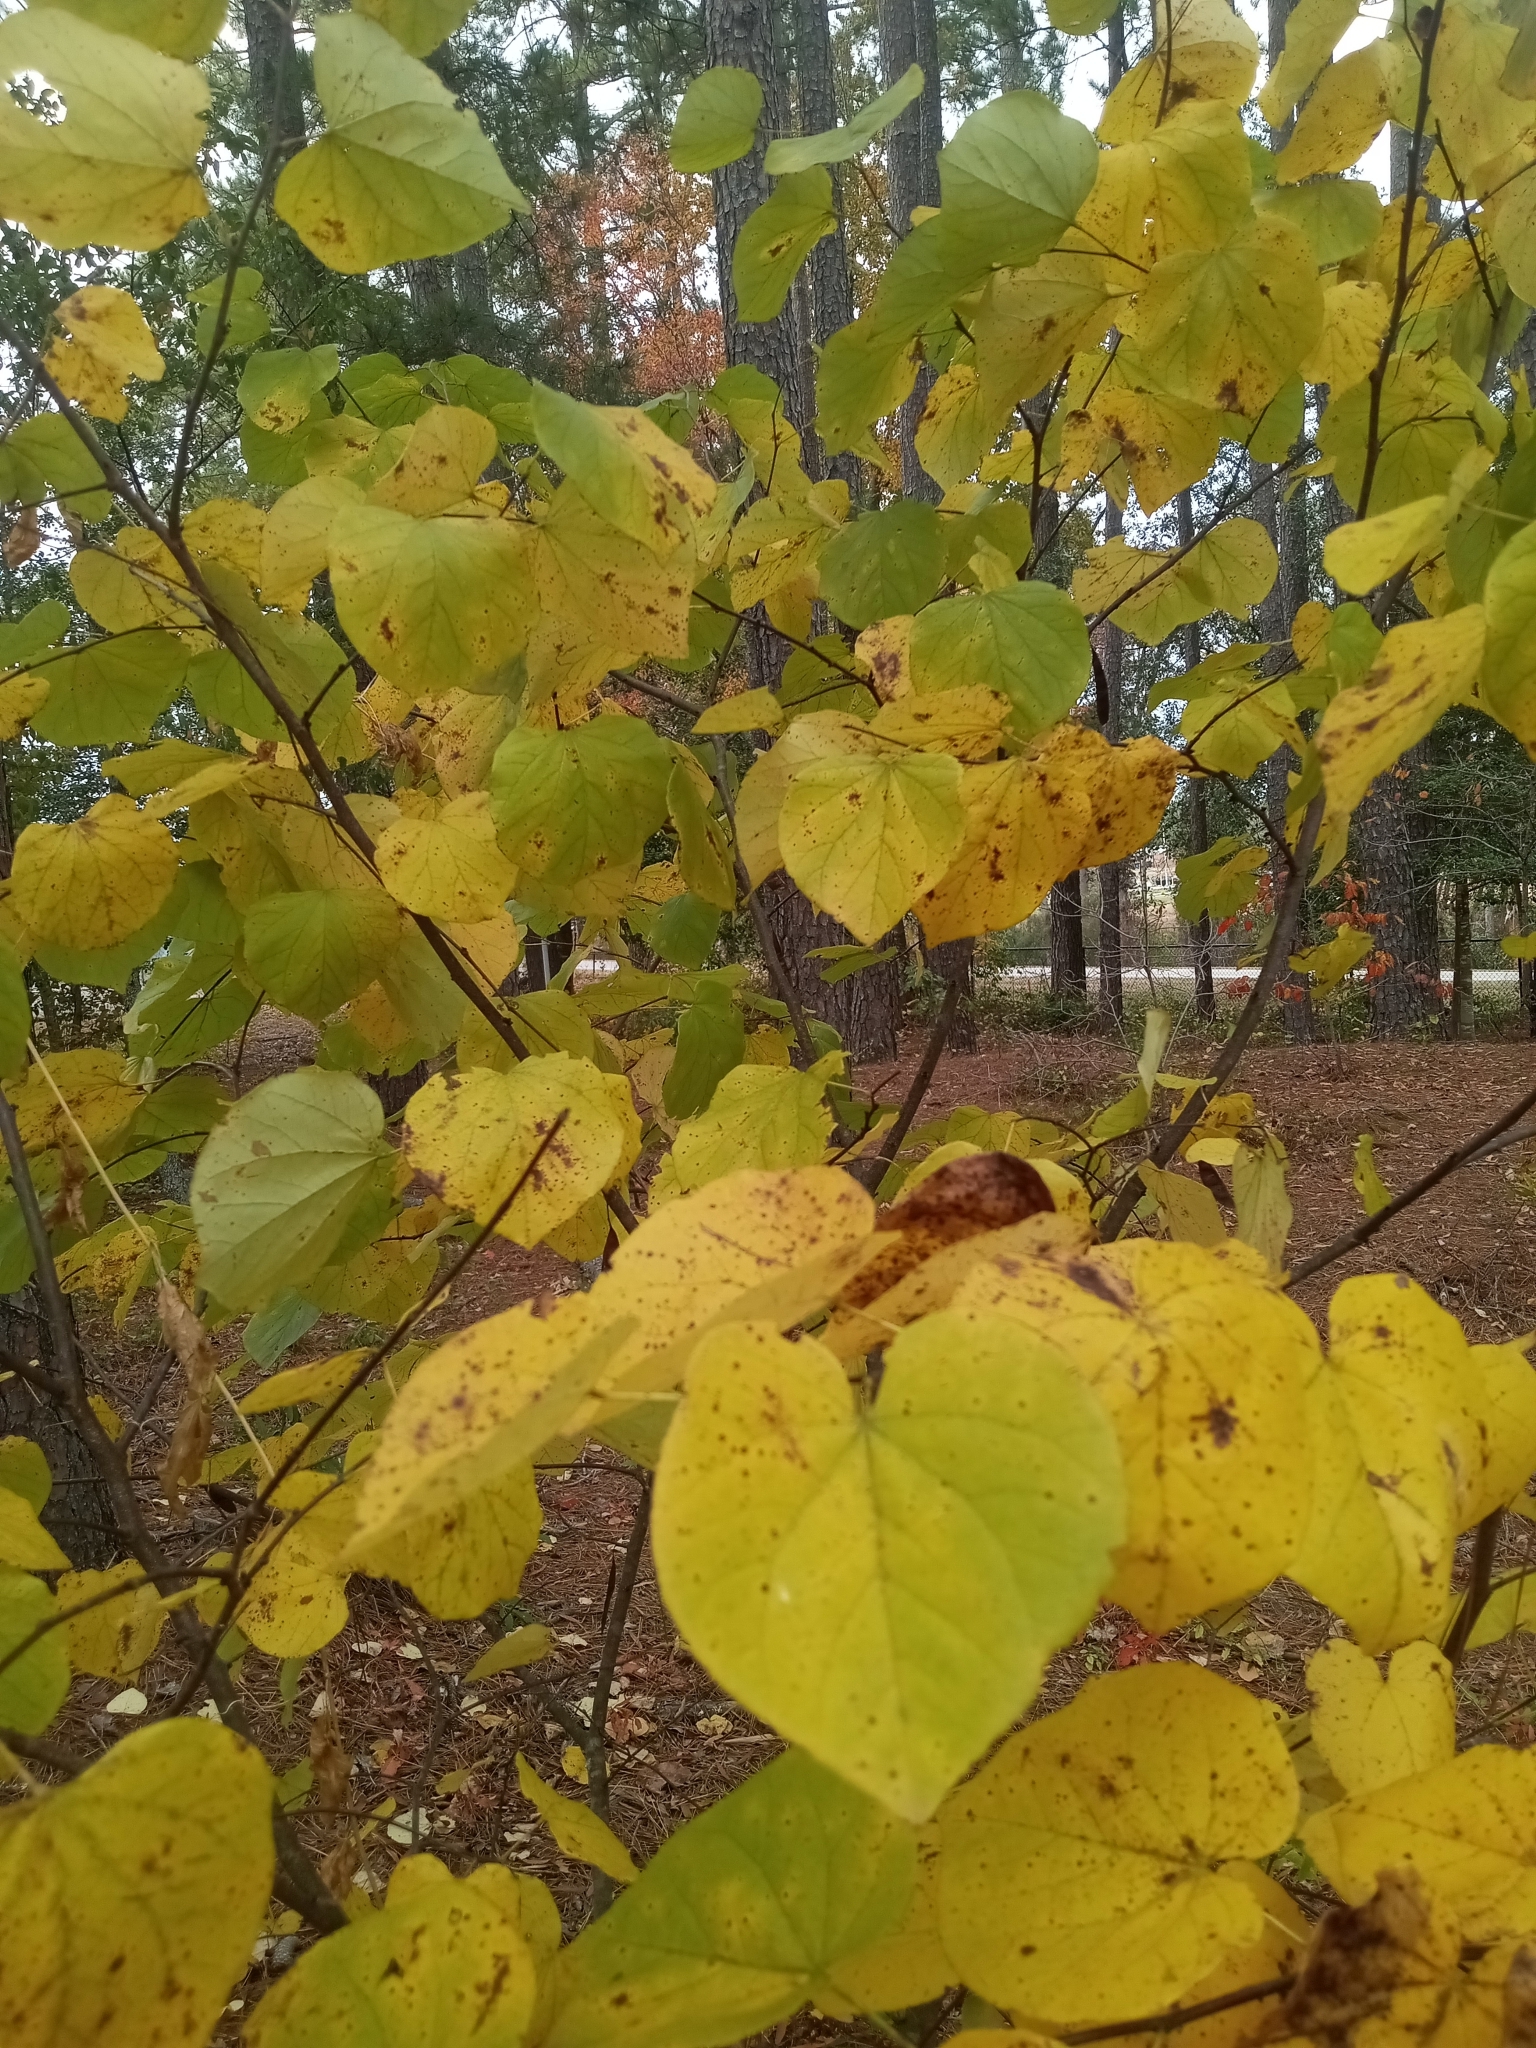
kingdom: Plantae
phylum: Tracheophyta
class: Magnoliopsida
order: Fabales
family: Fabaceae
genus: Cercis
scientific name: Cercis canadensis
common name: Eastern redbud
